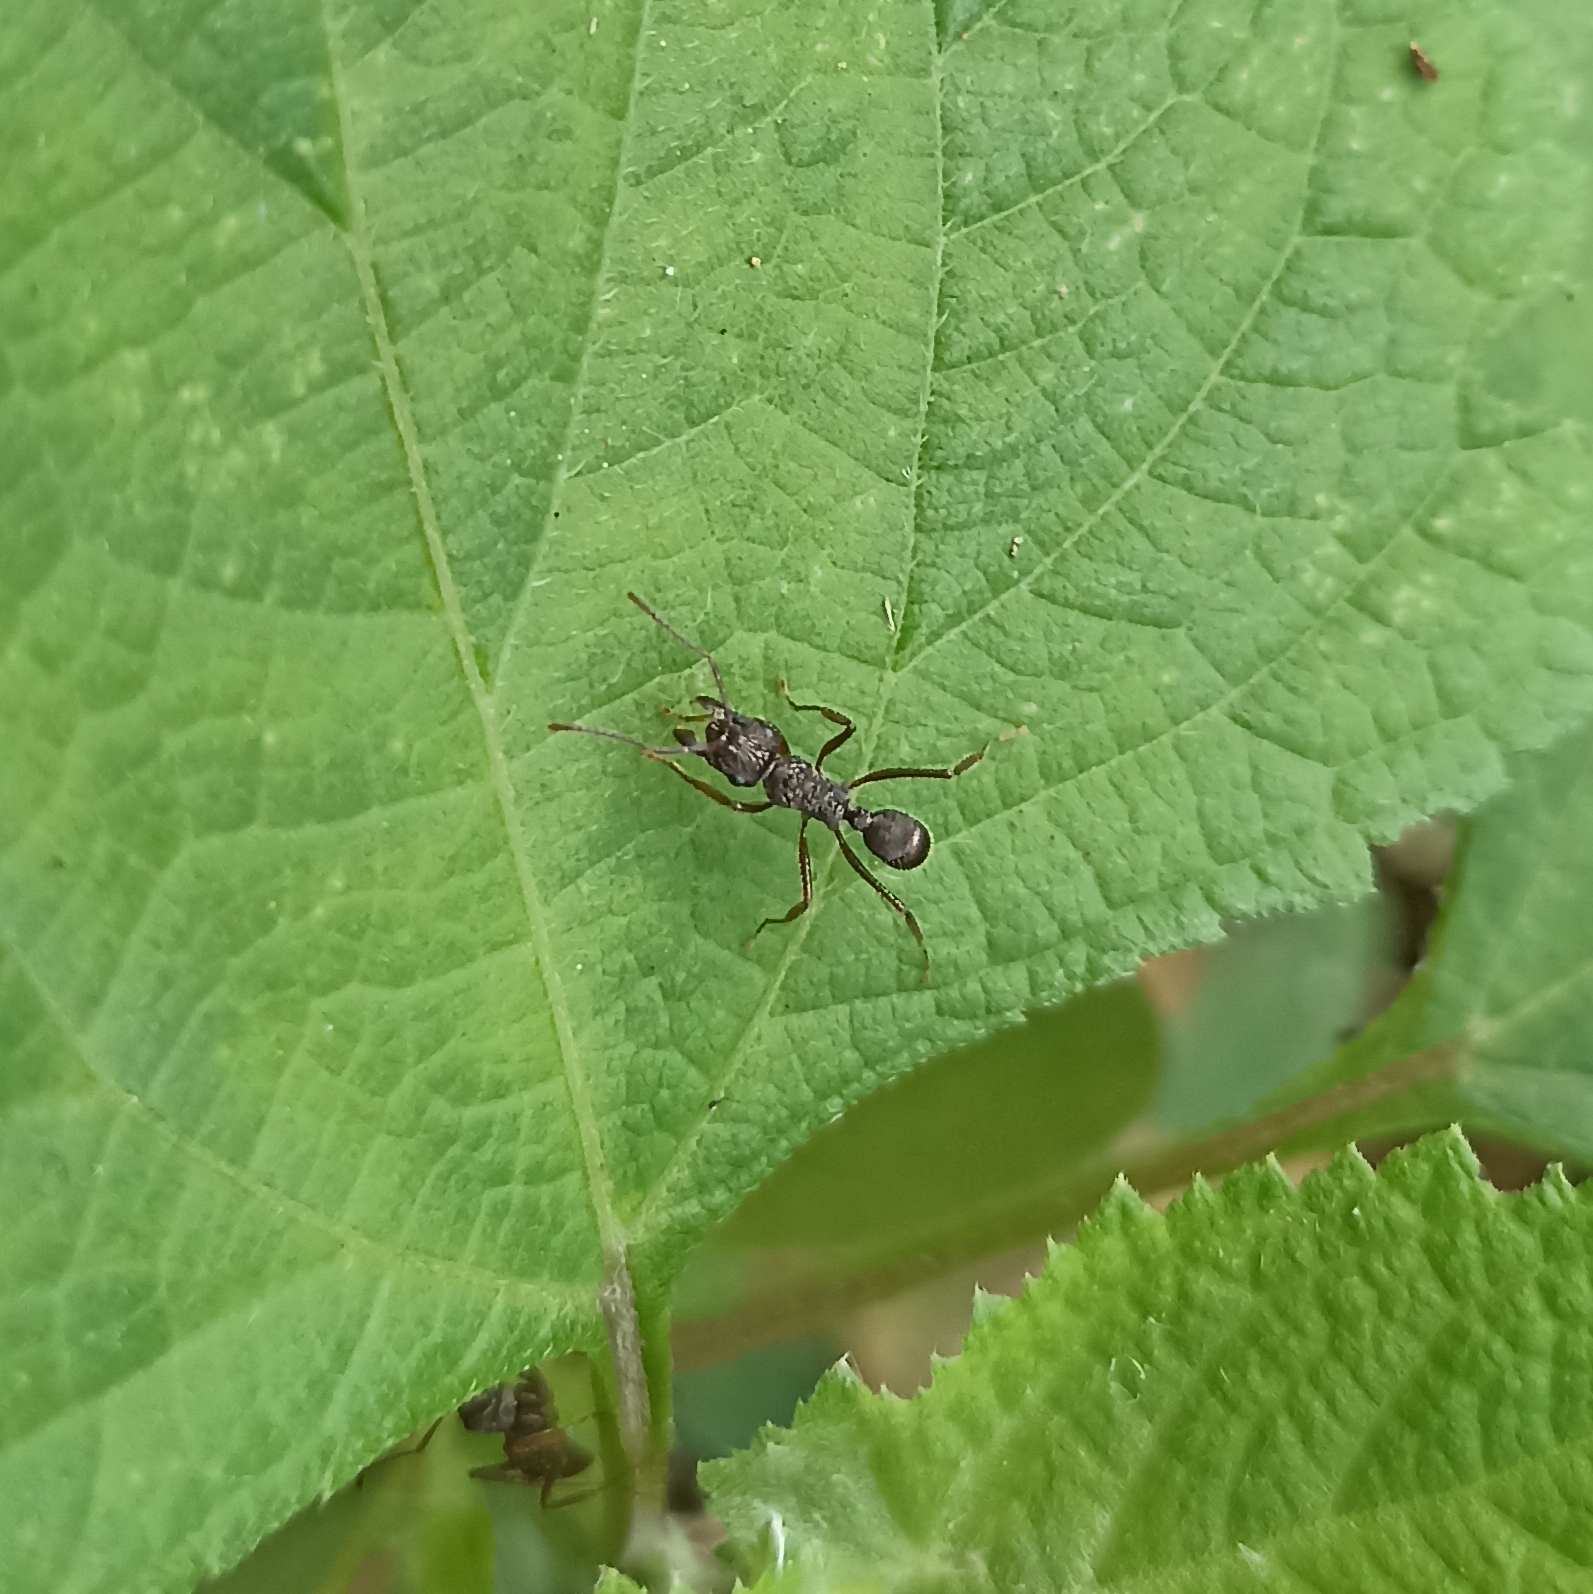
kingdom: Animalia
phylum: Arthropoda
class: Insecta
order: Hymenoptera
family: Formicidae
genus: Ectatomma
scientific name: Ectatomma ruidum
